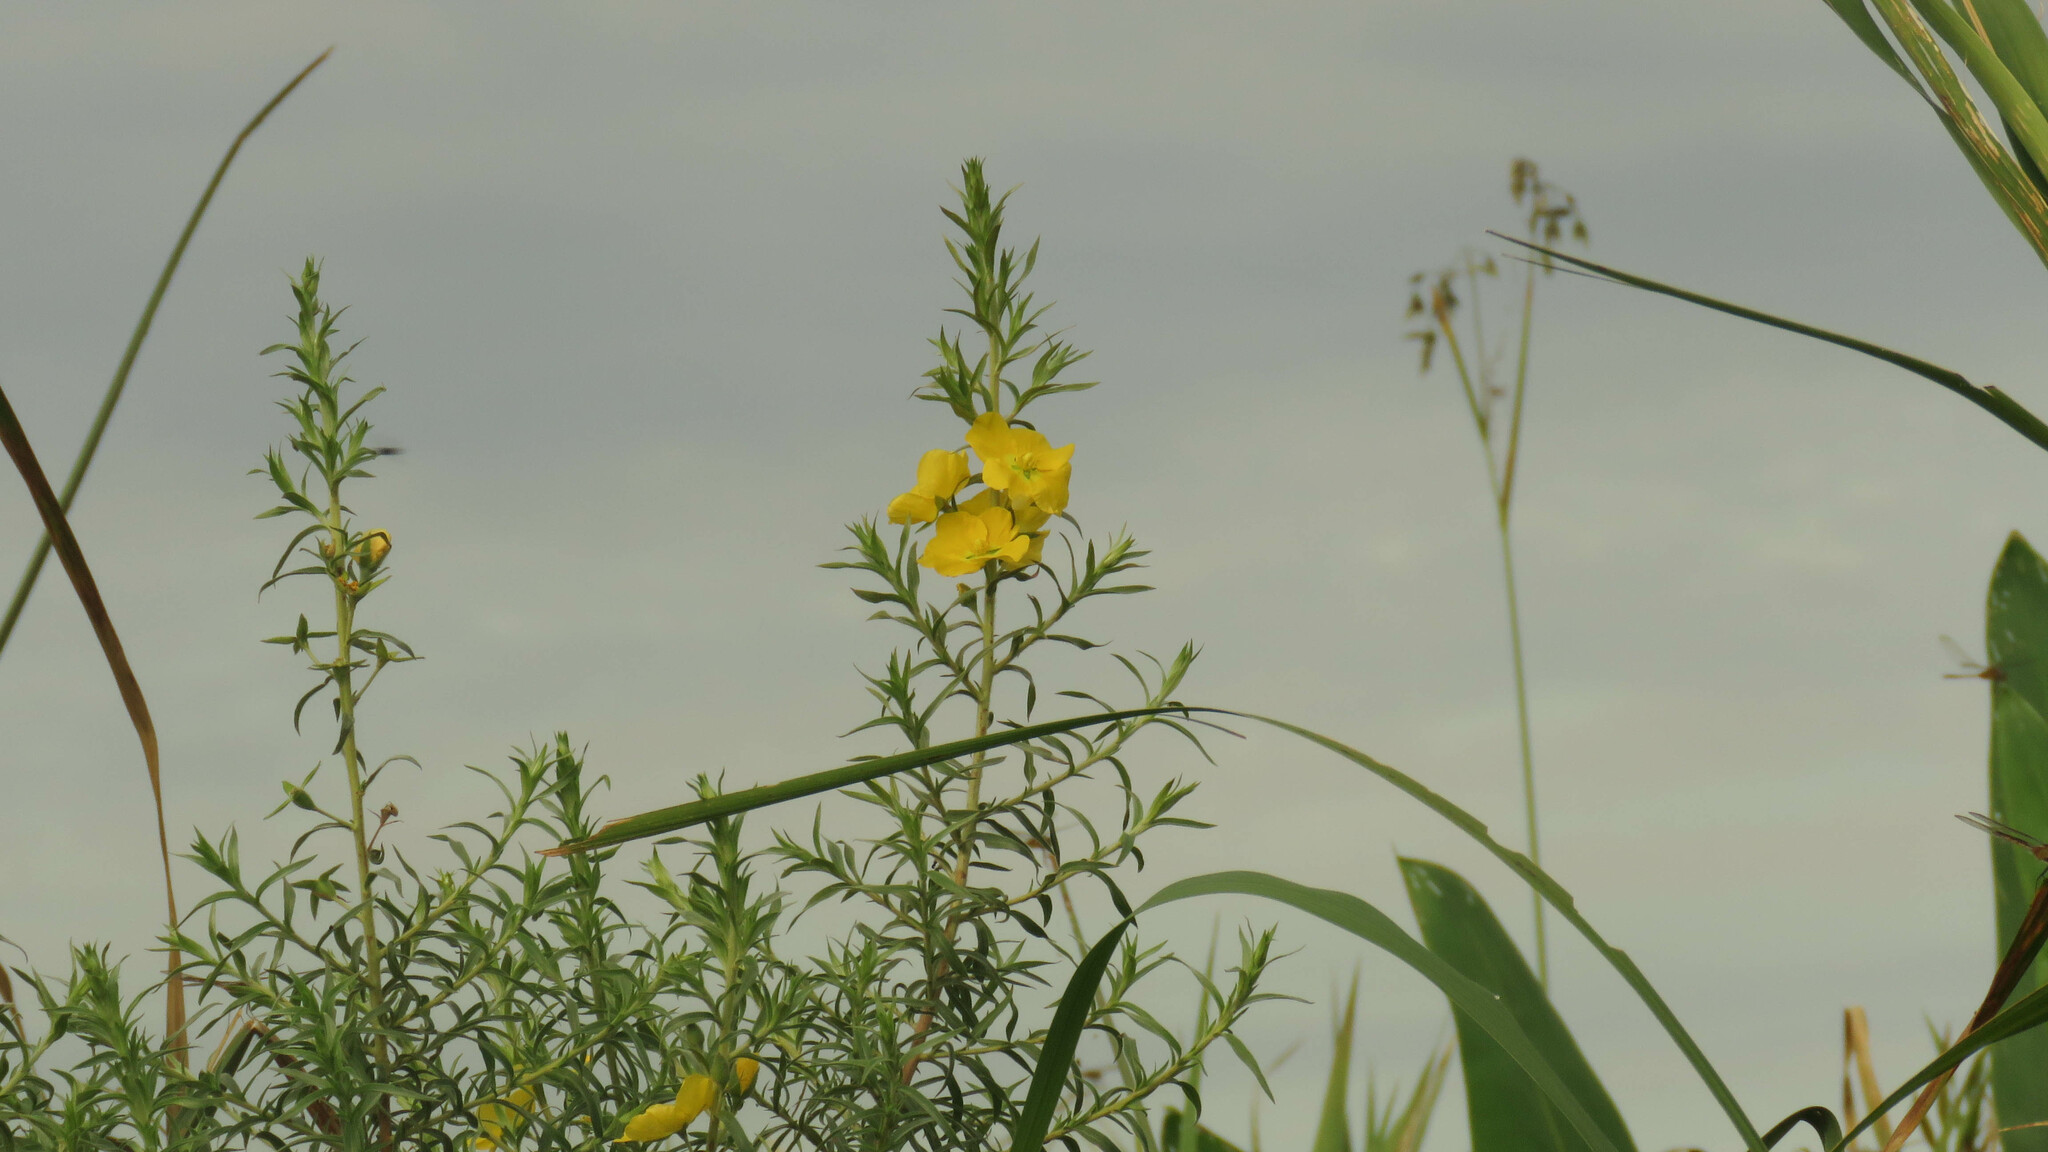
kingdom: Plantae
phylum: Tracheophyta
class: Magnoliopsida
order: Myrtales
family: Onagraceae
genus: Ludwigia
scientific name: Ludwigia sericea
